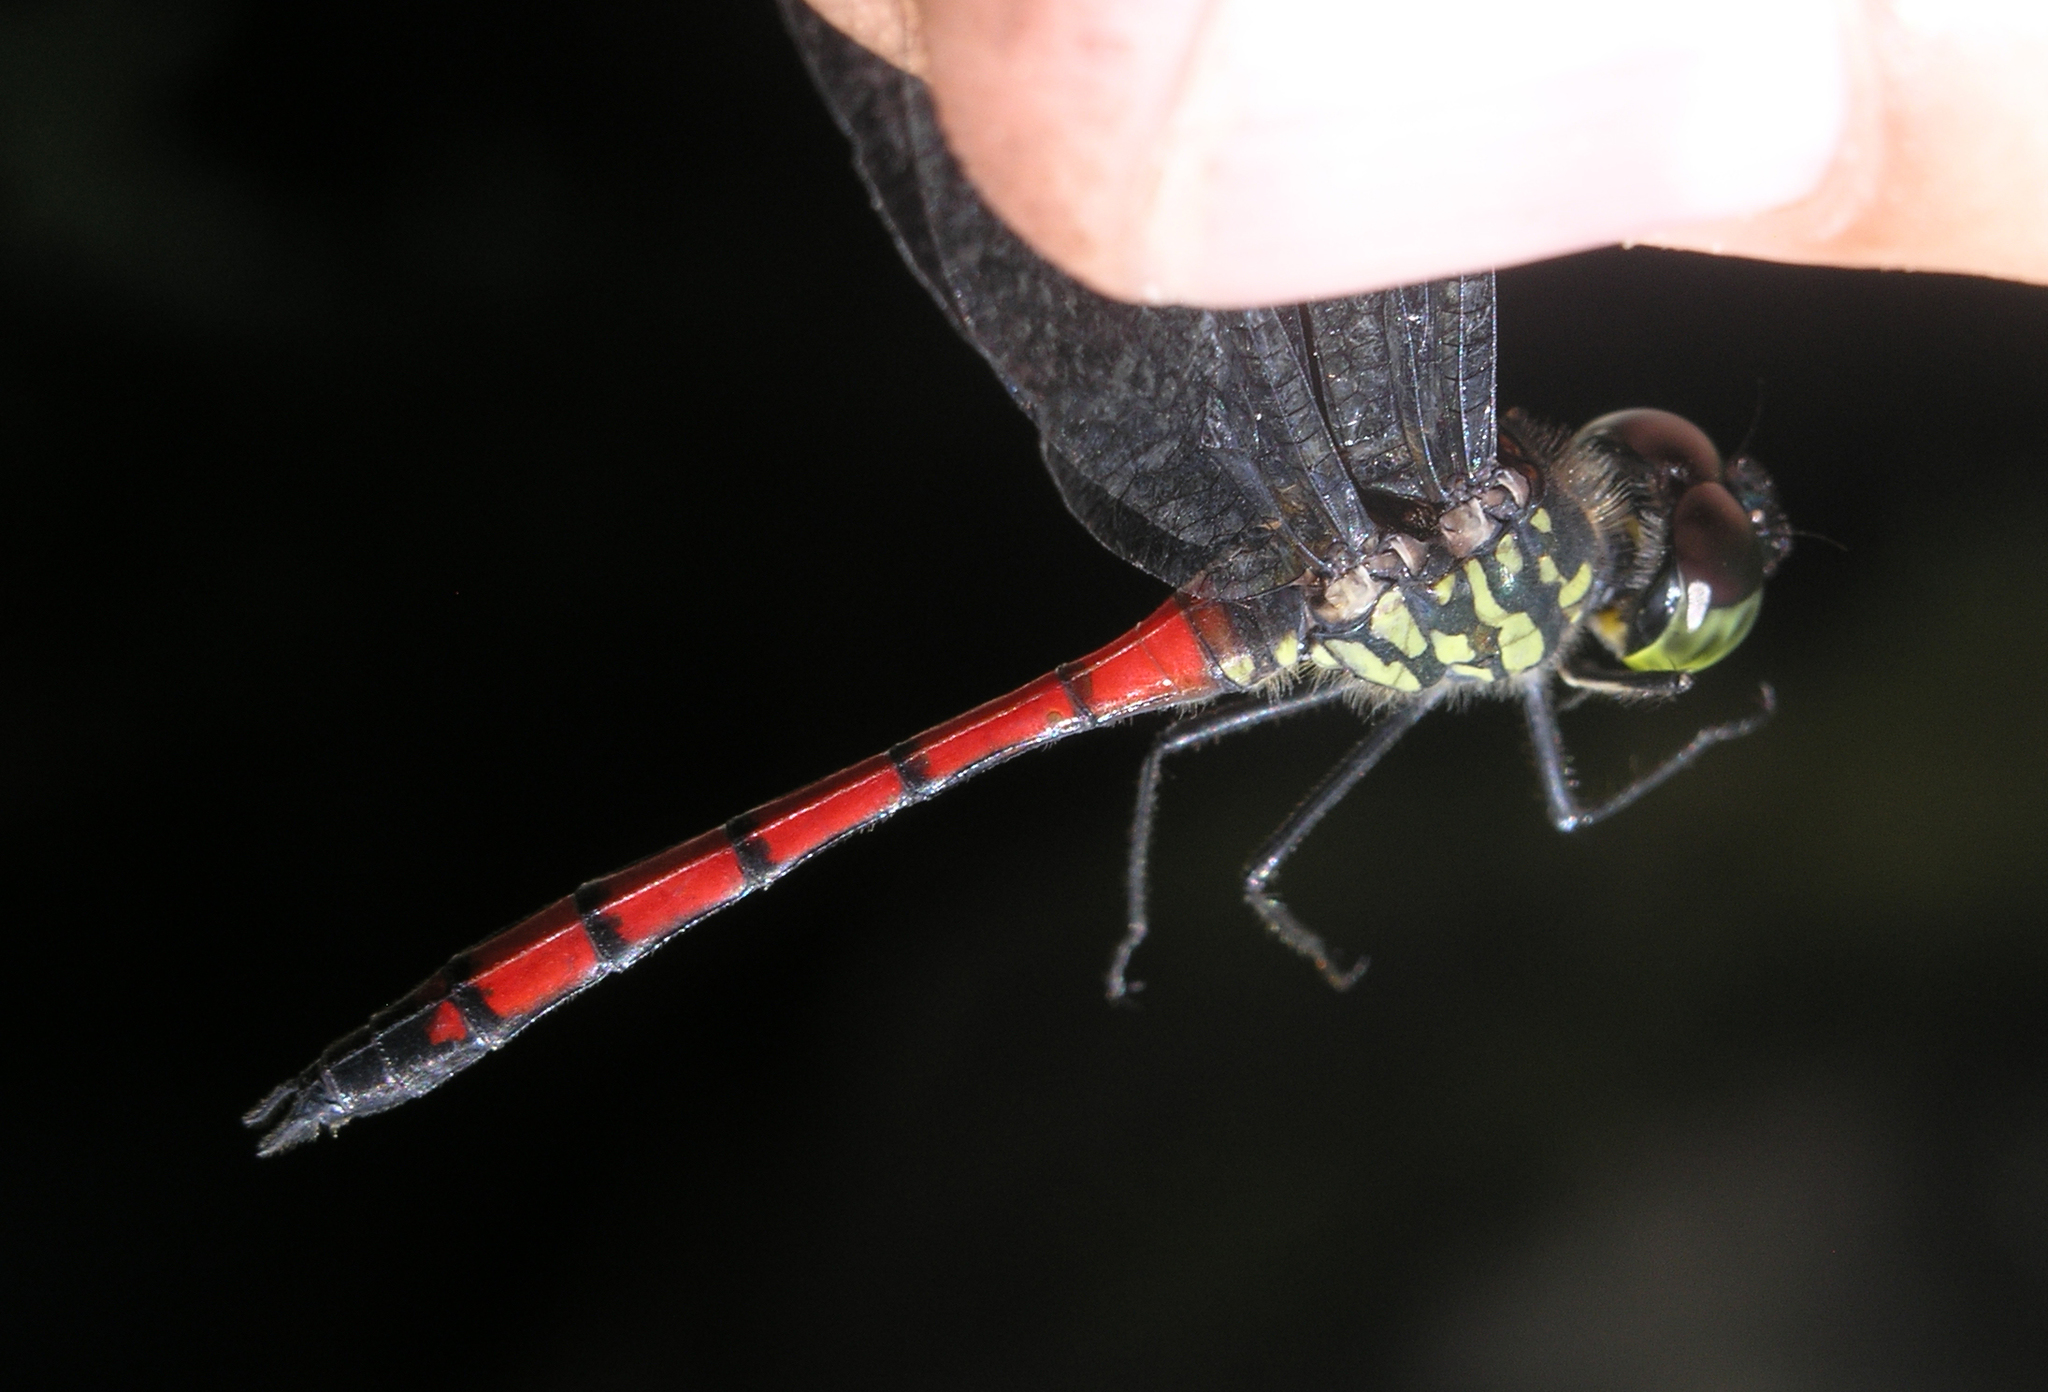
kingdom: Animalia
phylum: Arthropoda
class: Insecta
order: Odonata
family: Libellulidae
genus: Agrionoptera
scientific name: Agrionoptera insignis
